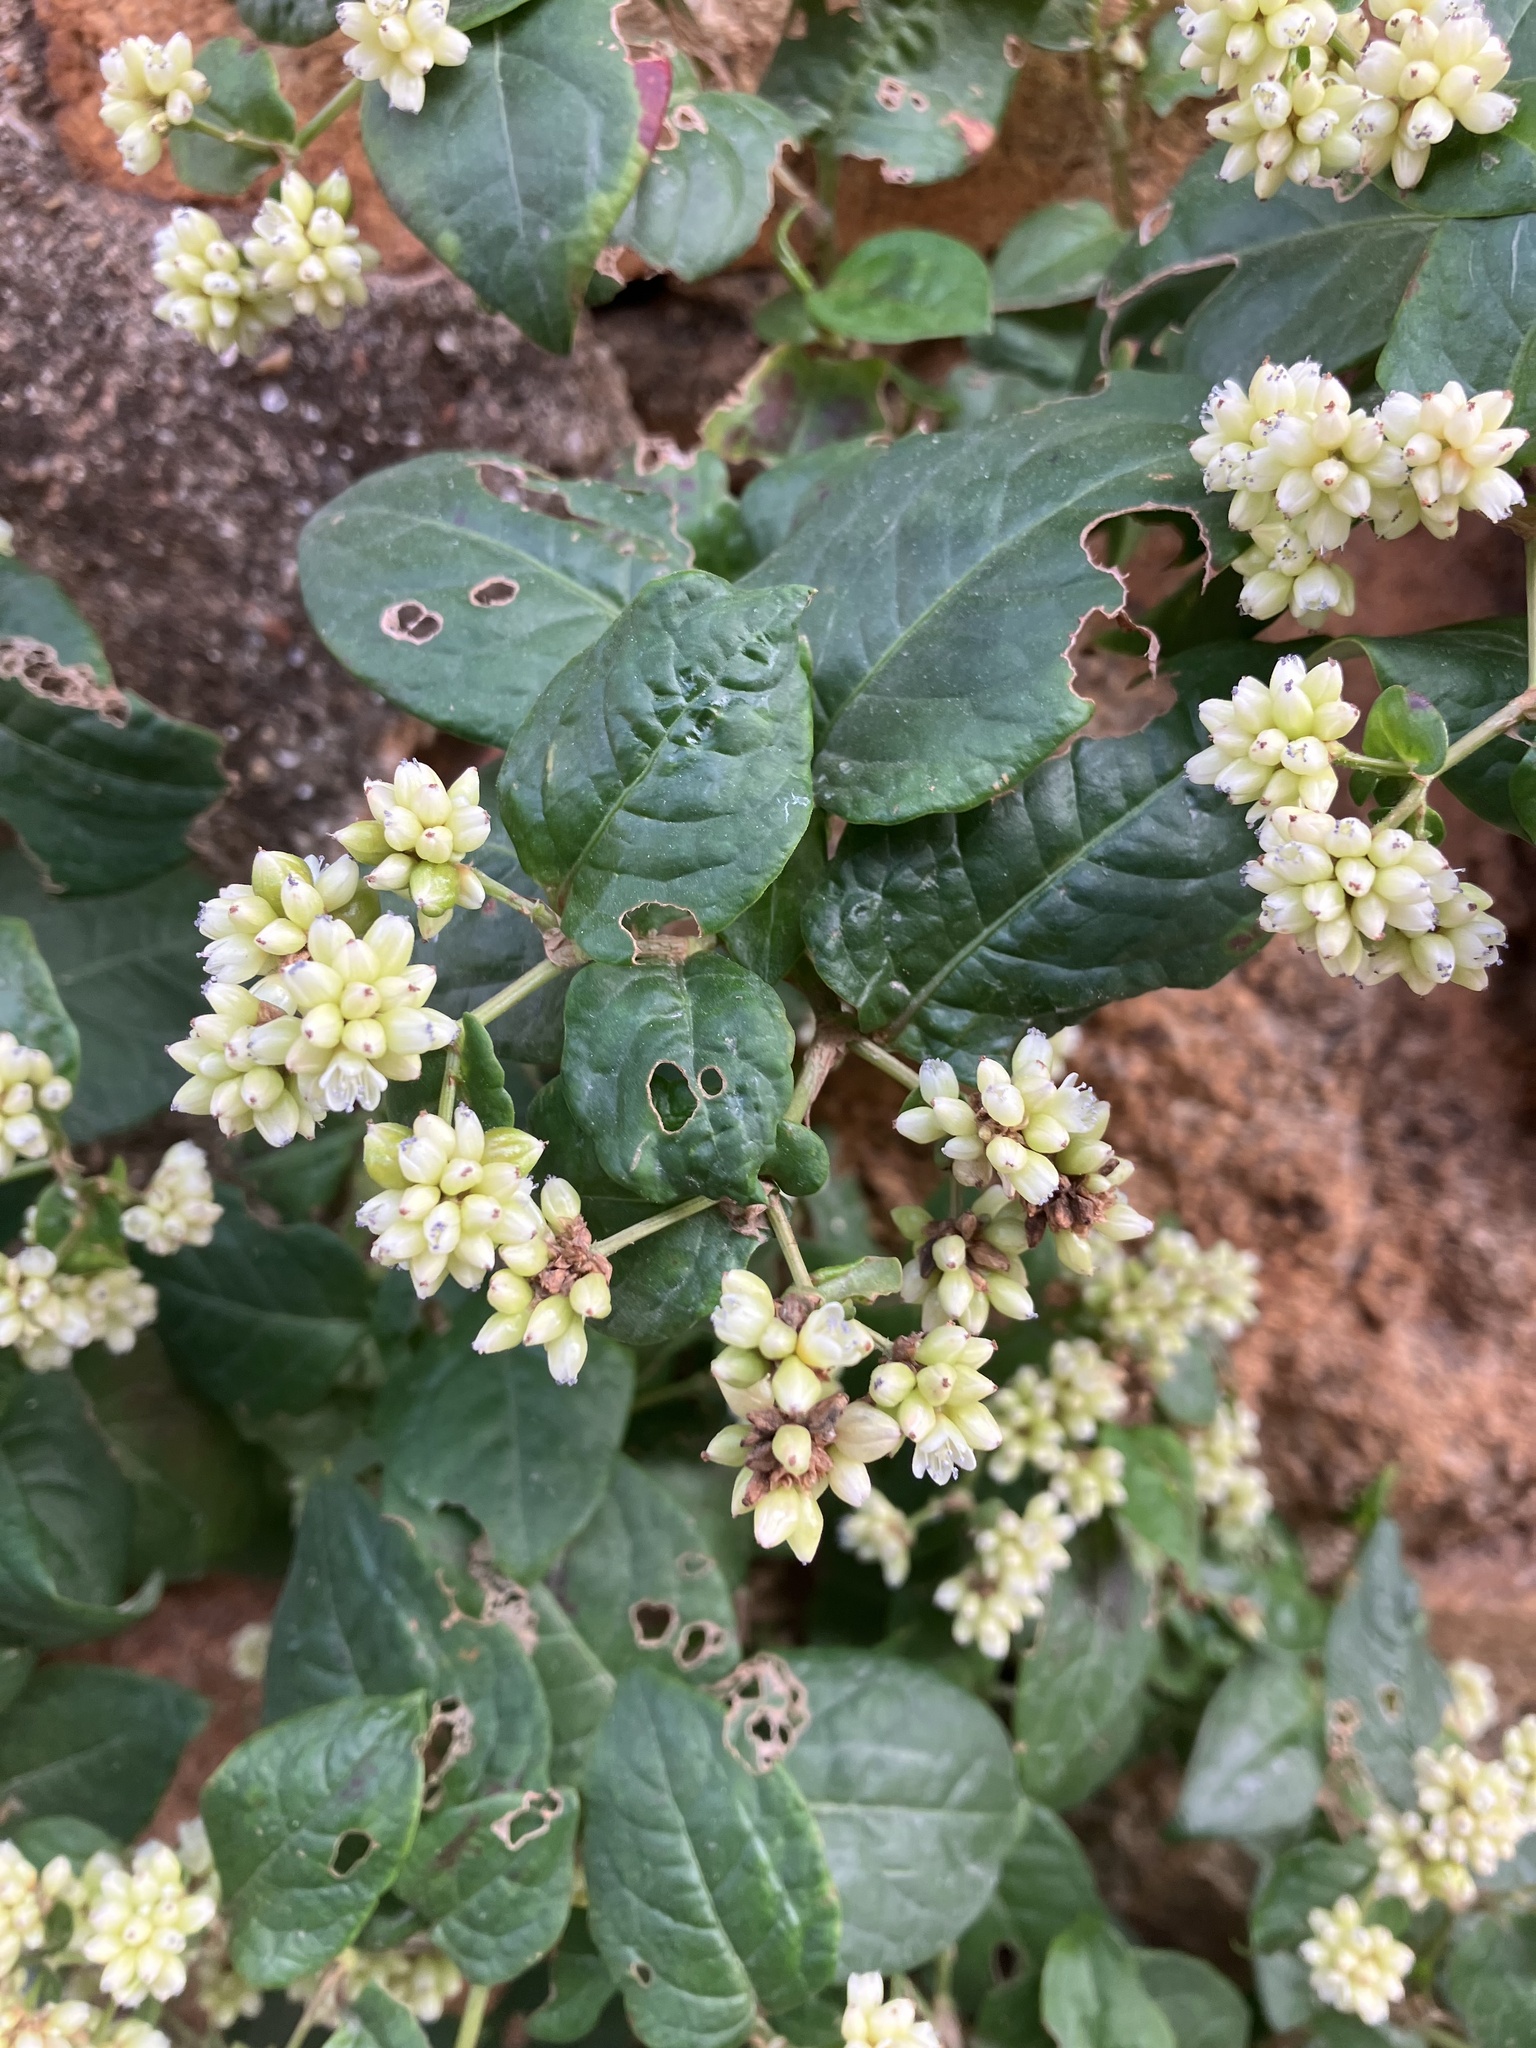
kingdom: Plantae
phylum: Tracheophyta
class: Magnoliopsida
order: Caryophyllales
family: Polygonaceae
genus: Persicaria
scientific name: Persicaria chinensis
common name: Chinese knotweed
